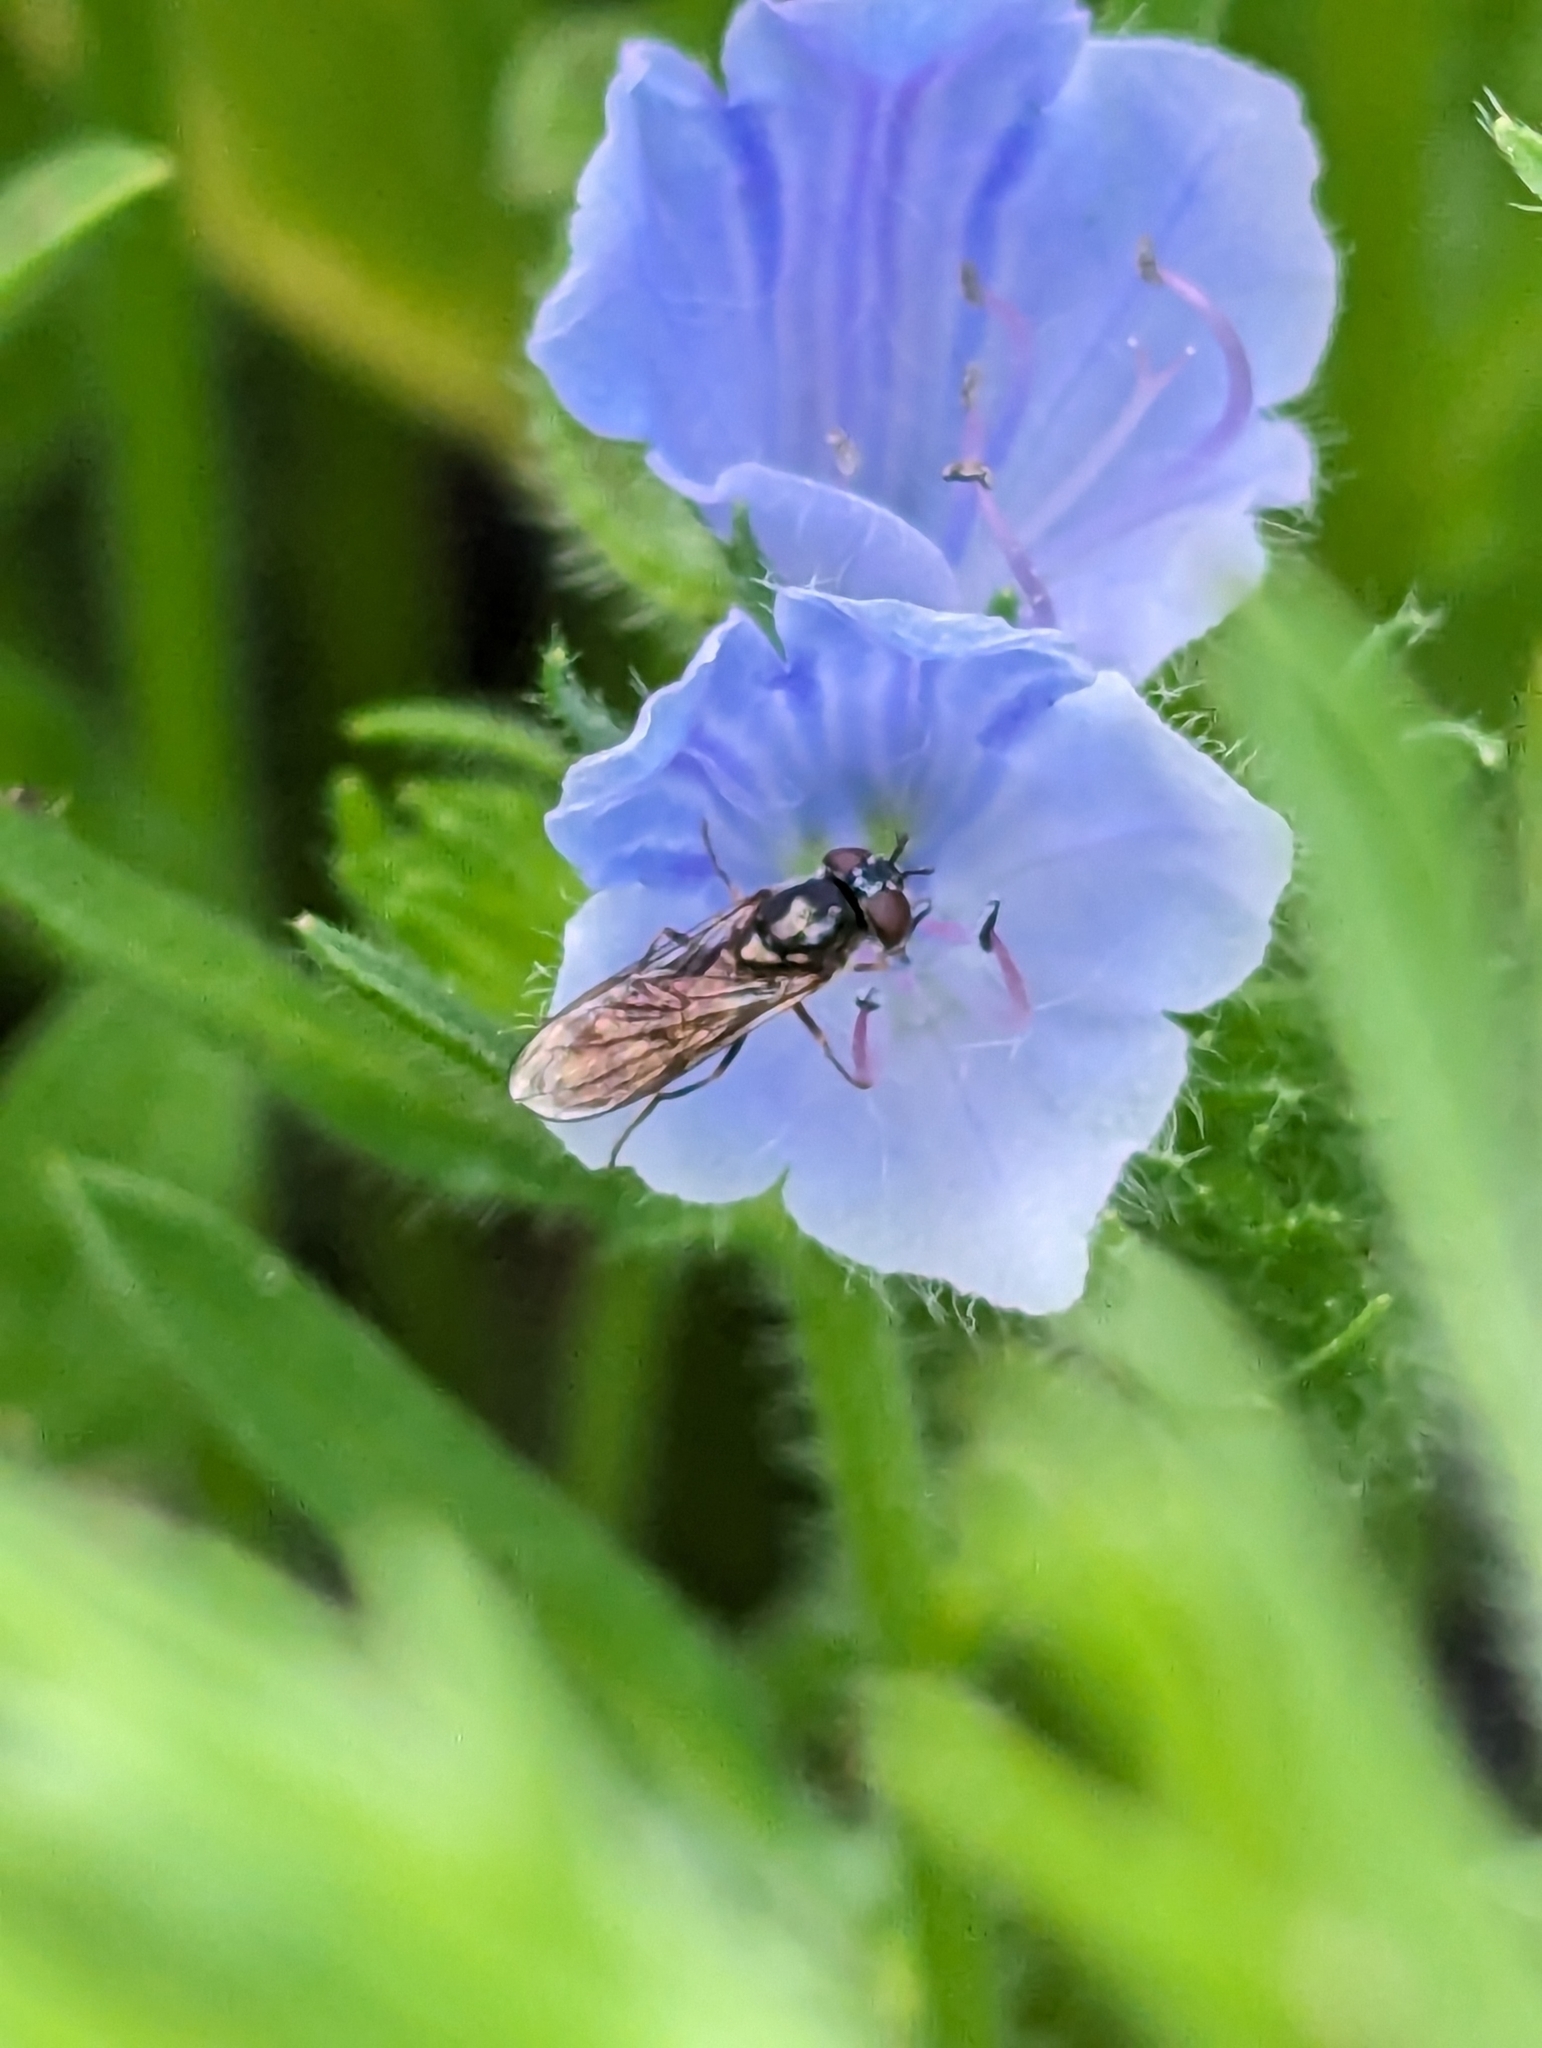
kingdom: Animalia
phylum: Arthropoda
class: Insecta
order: Diptera
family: Syrphidae
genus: Platycheirus
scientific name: Platycheirus albimanus
